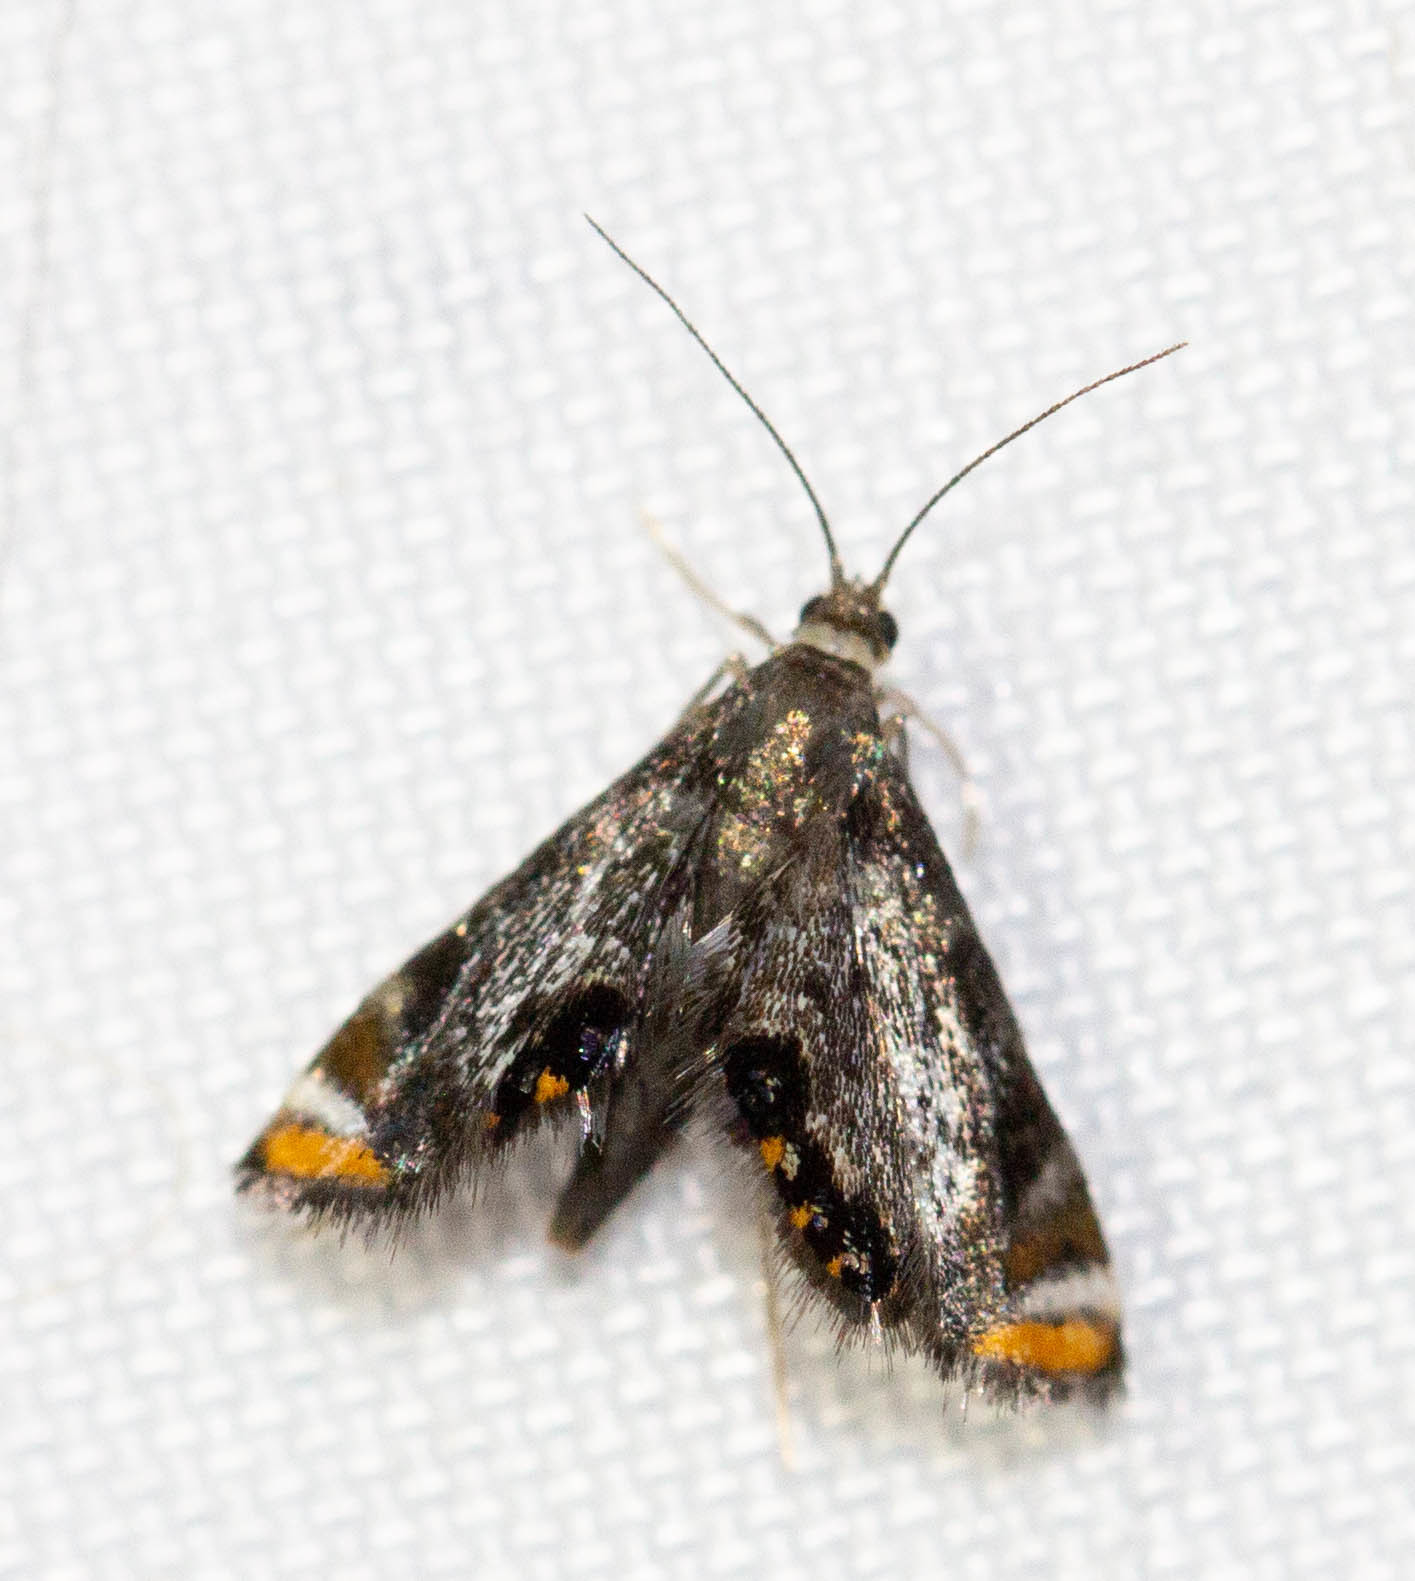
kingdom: Animalia
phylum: Arthropoda
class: Insecta
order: Lepidoptera
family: Crambidae
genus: Chrysendeton
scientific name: Chrysendeton nigrescens
